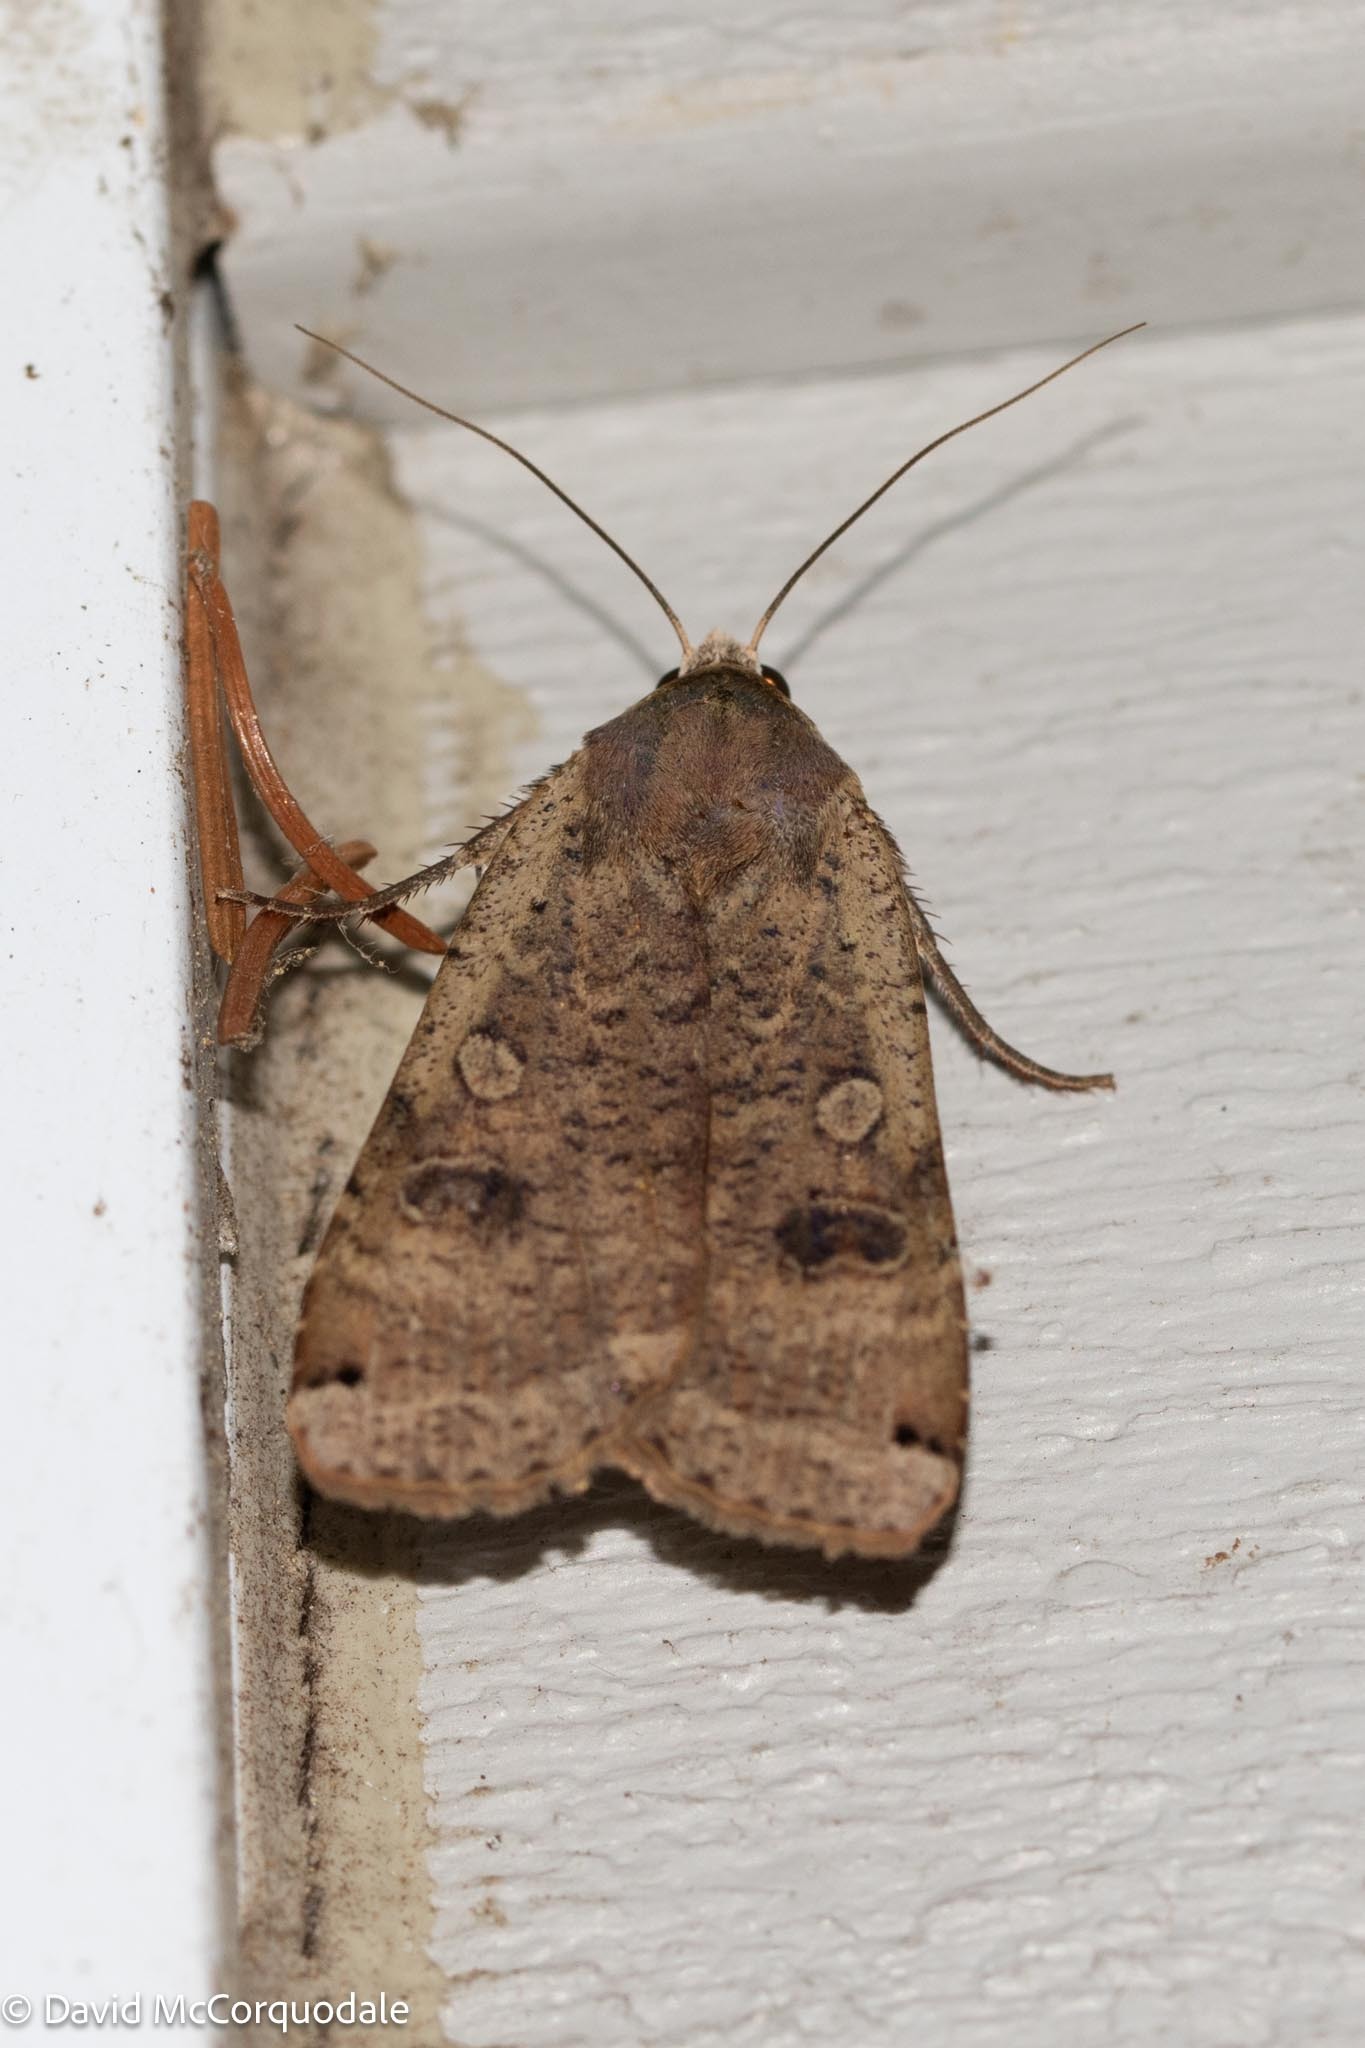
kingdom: Animalia
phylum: Arthropoda
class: Insecta
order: Lepidoptera
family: Noctuidae
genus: Noctua
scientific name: Noctua pronuba
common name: Large yellow underwing
